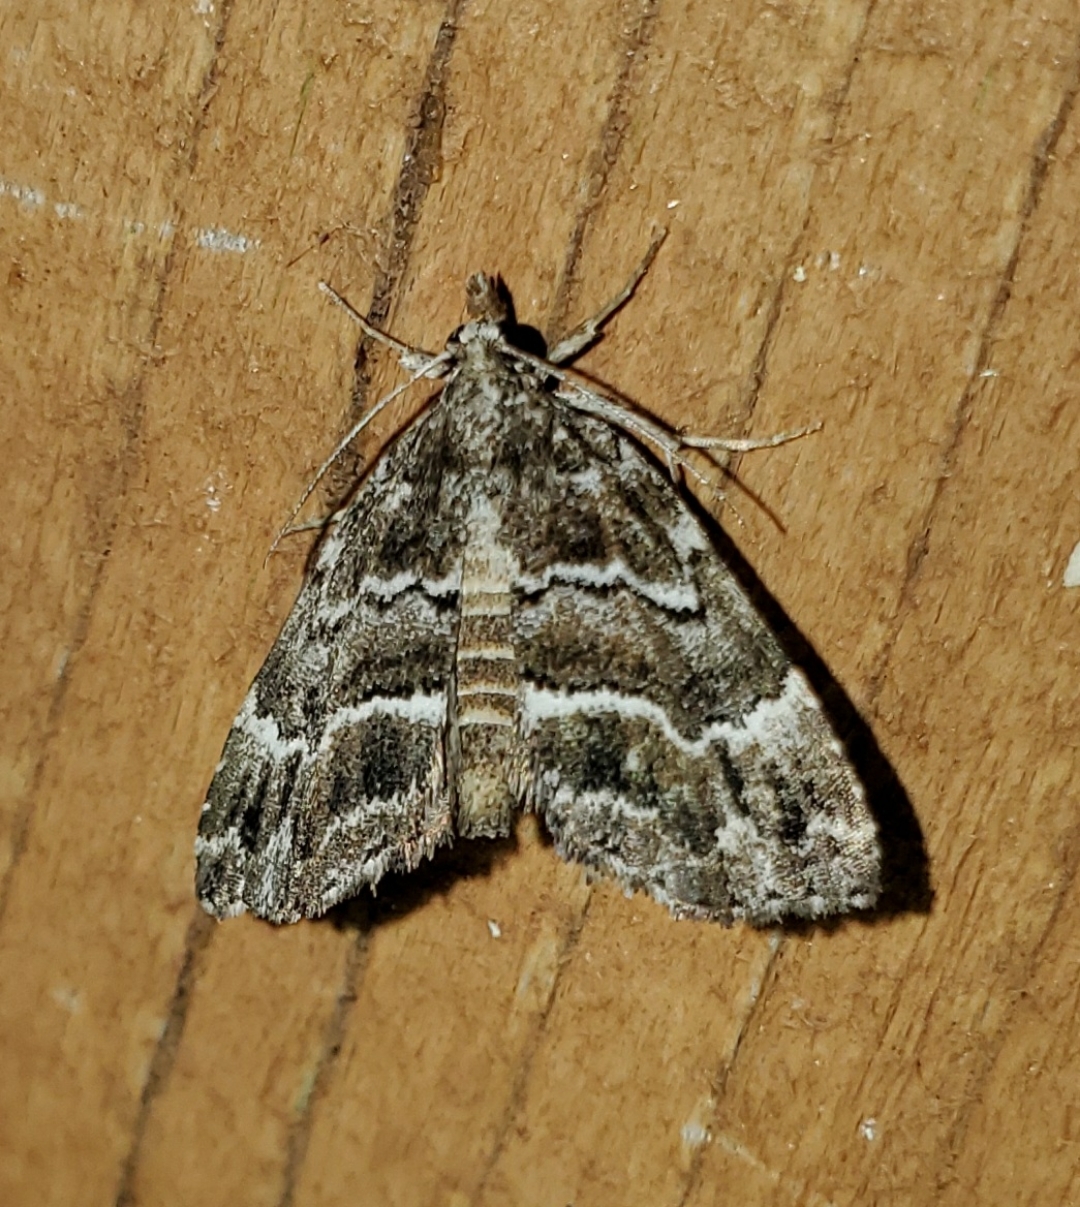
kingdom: Animalia
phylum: Arthropoda
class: Insecta
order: Lepidoptera
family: Erebidae
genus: Cutina
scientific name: Cutina arcuata
